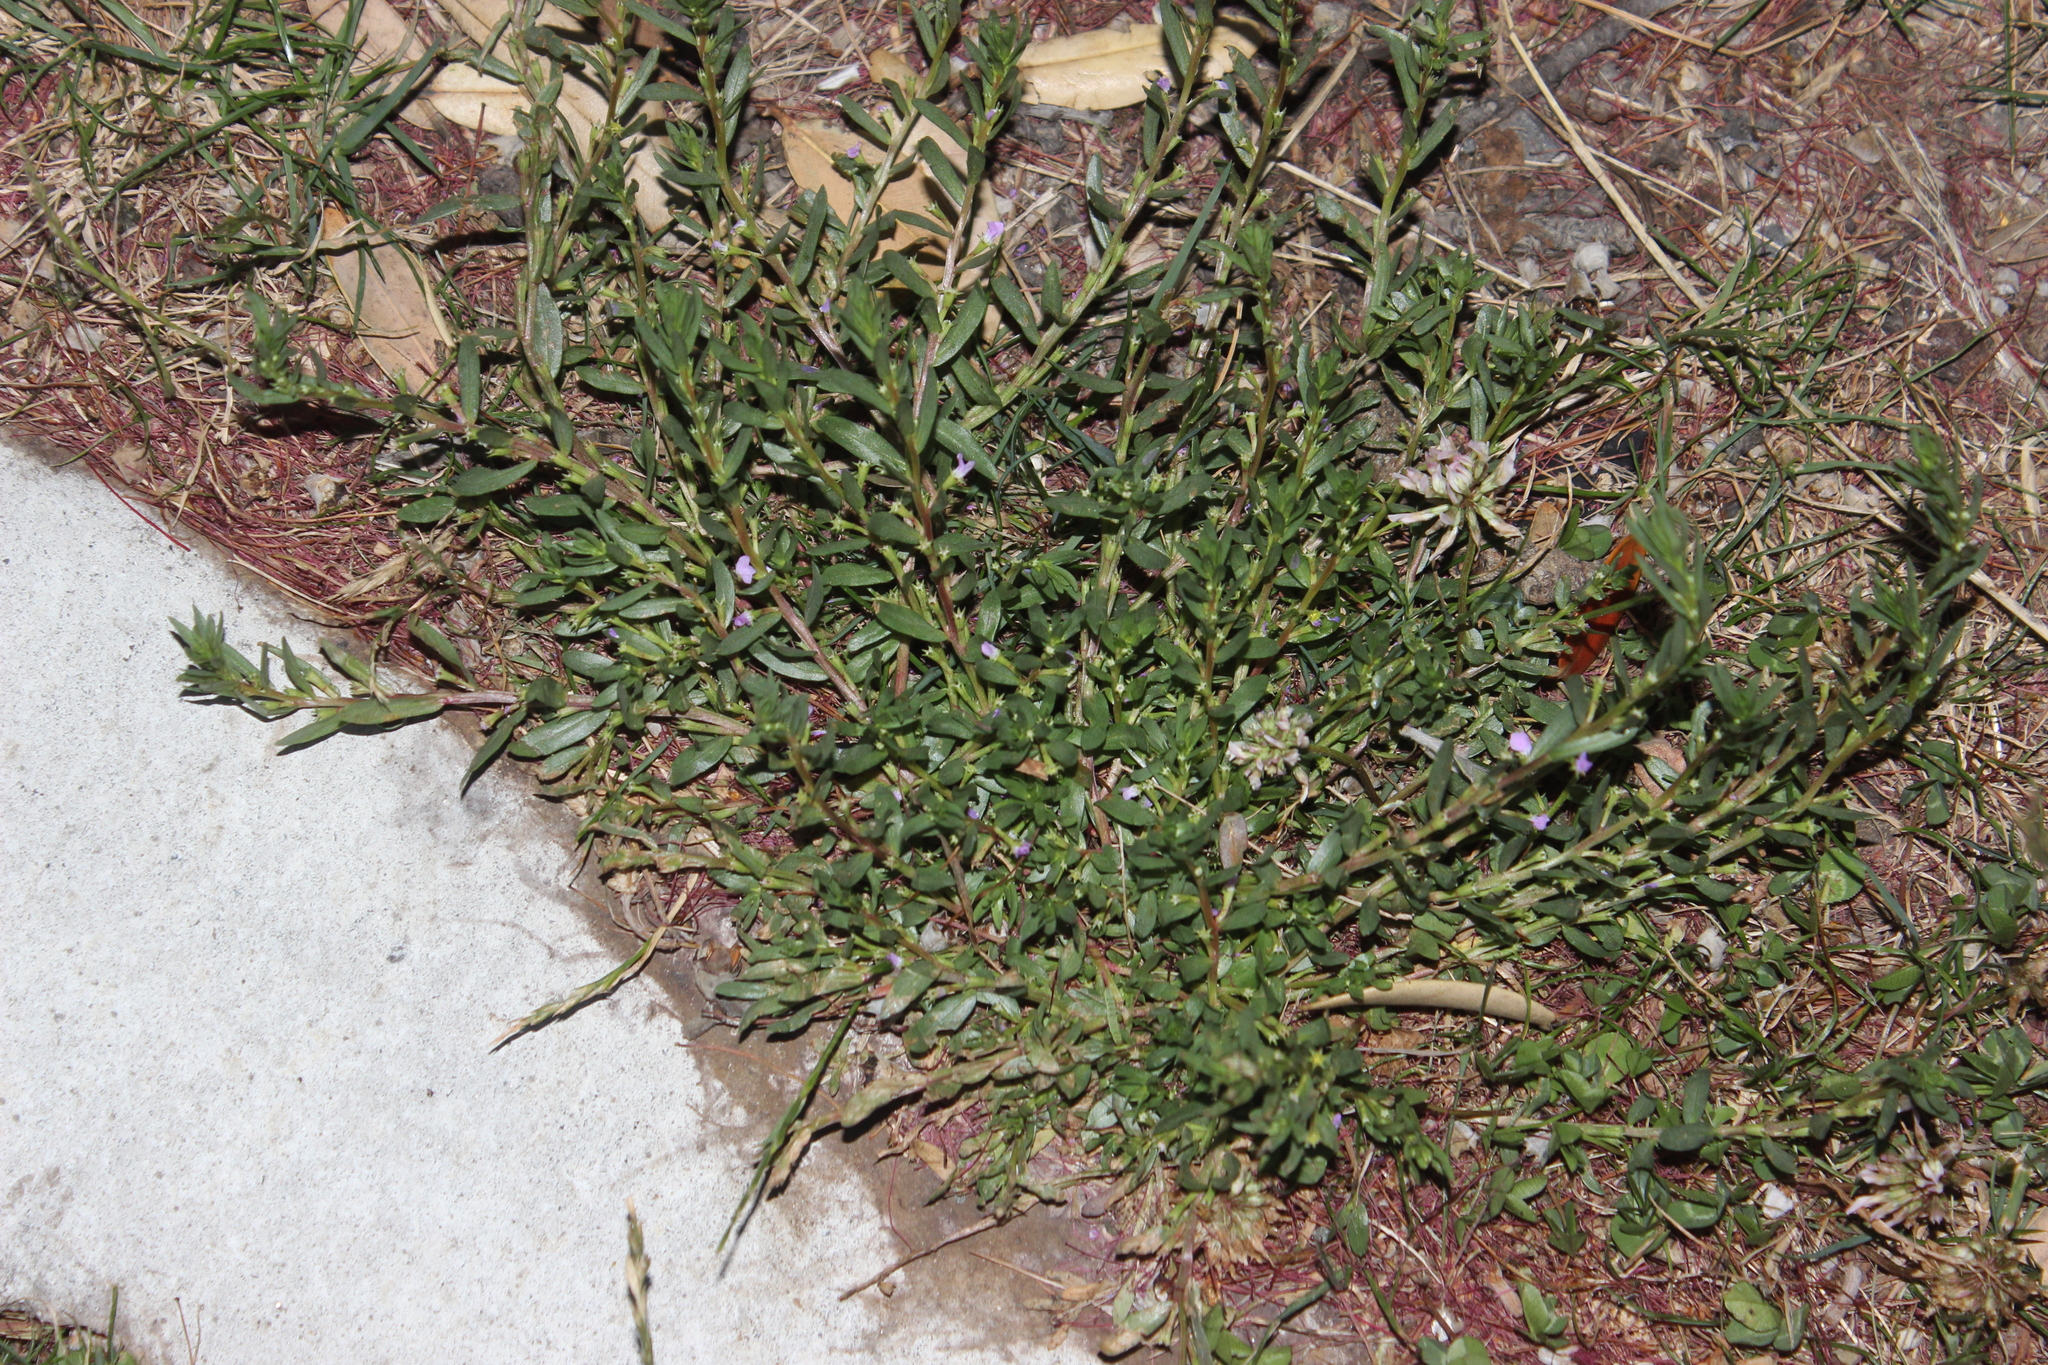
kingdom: Plantae
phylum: Tracheophyta
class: Magnoliopsida
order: Myrtales
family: Lythraceae
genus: Lythrum
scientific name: Lythrum hyssopifolia
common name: Grass-poly
